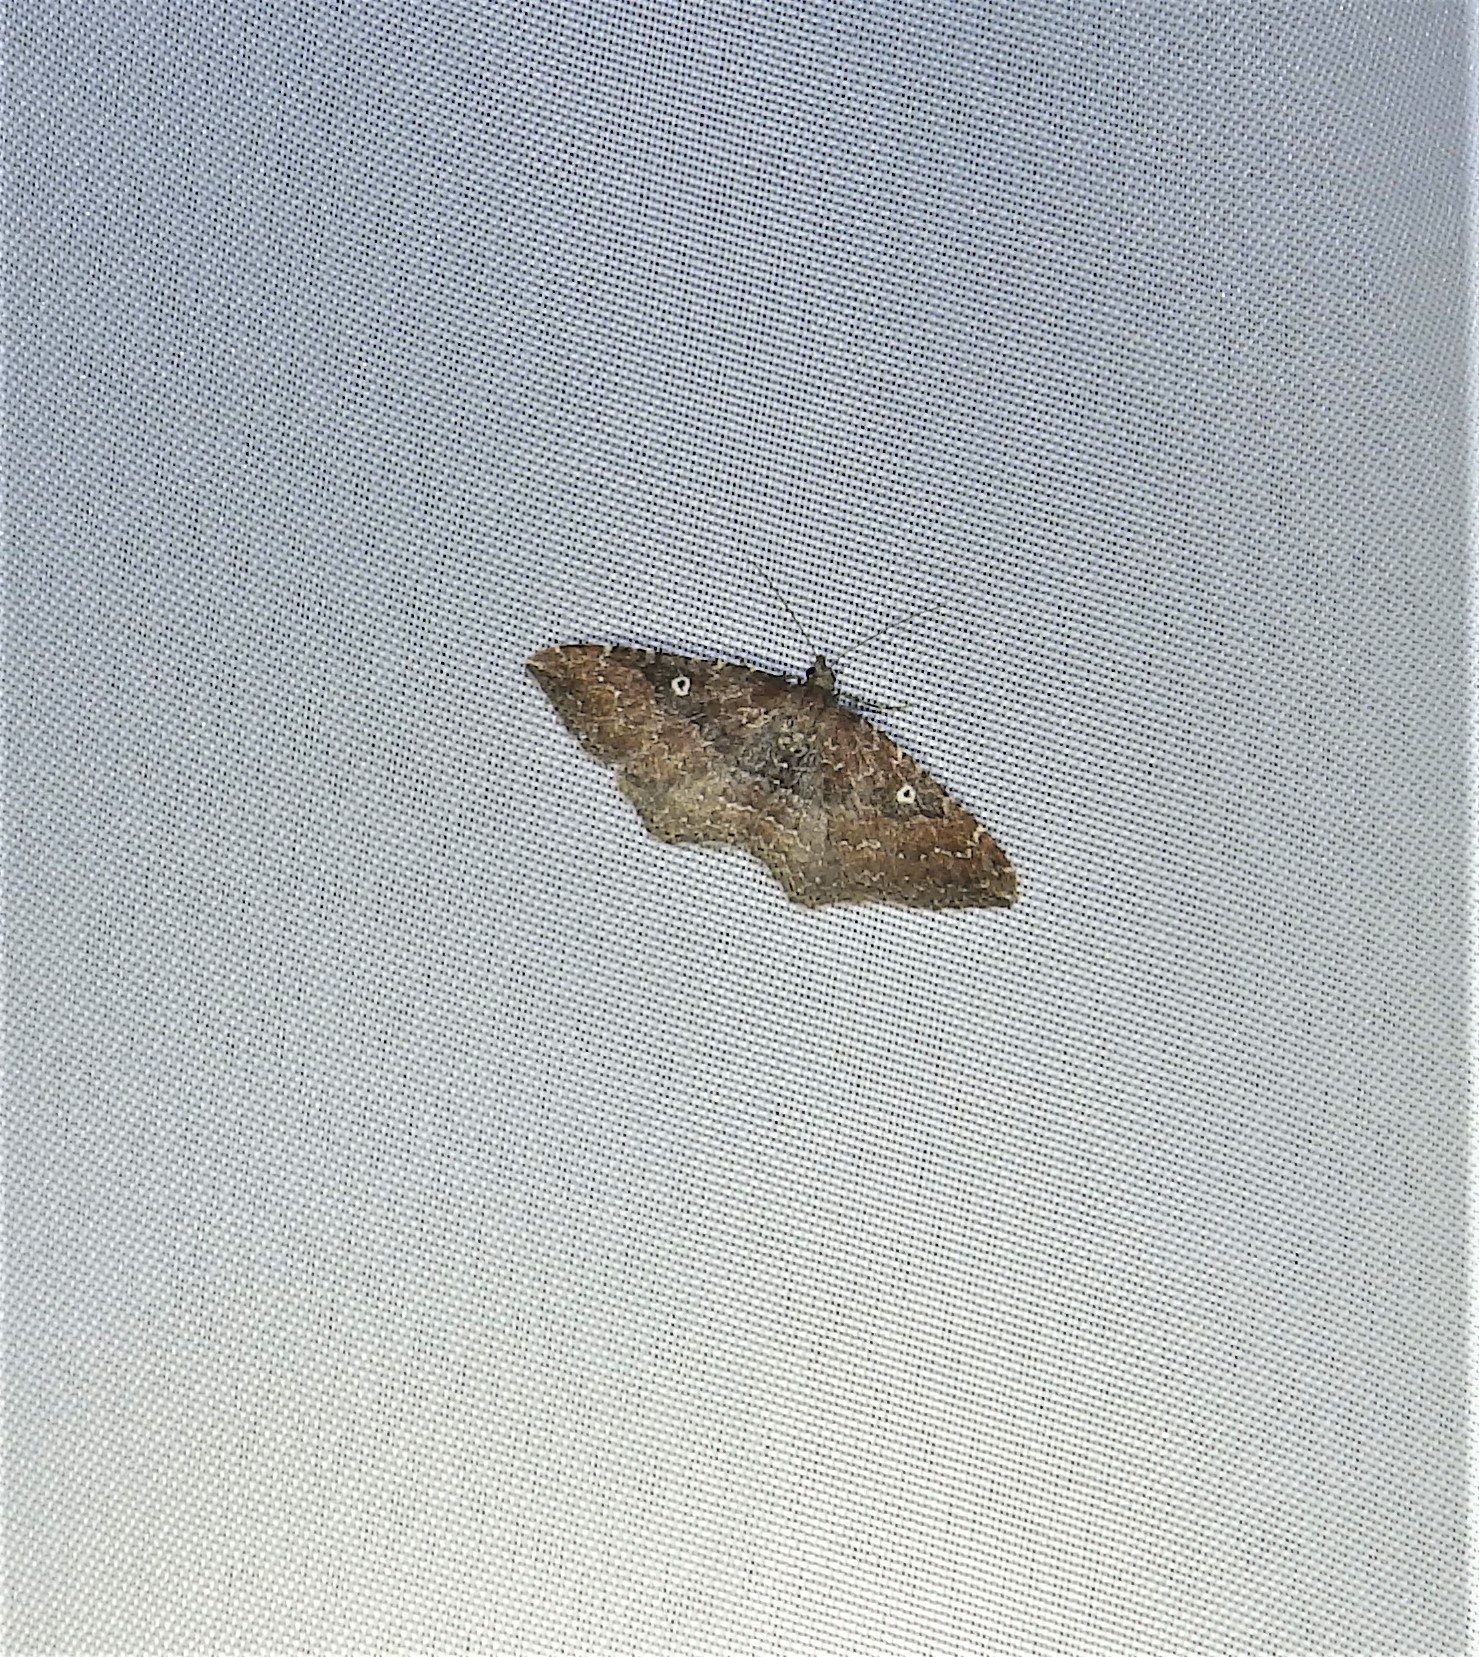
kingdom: Animalia
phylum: Arthropoda
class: Insecta
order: Lepidoptera
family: Geometridae
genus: Orthonama
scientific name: Orthonama obstipata
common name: The gem
